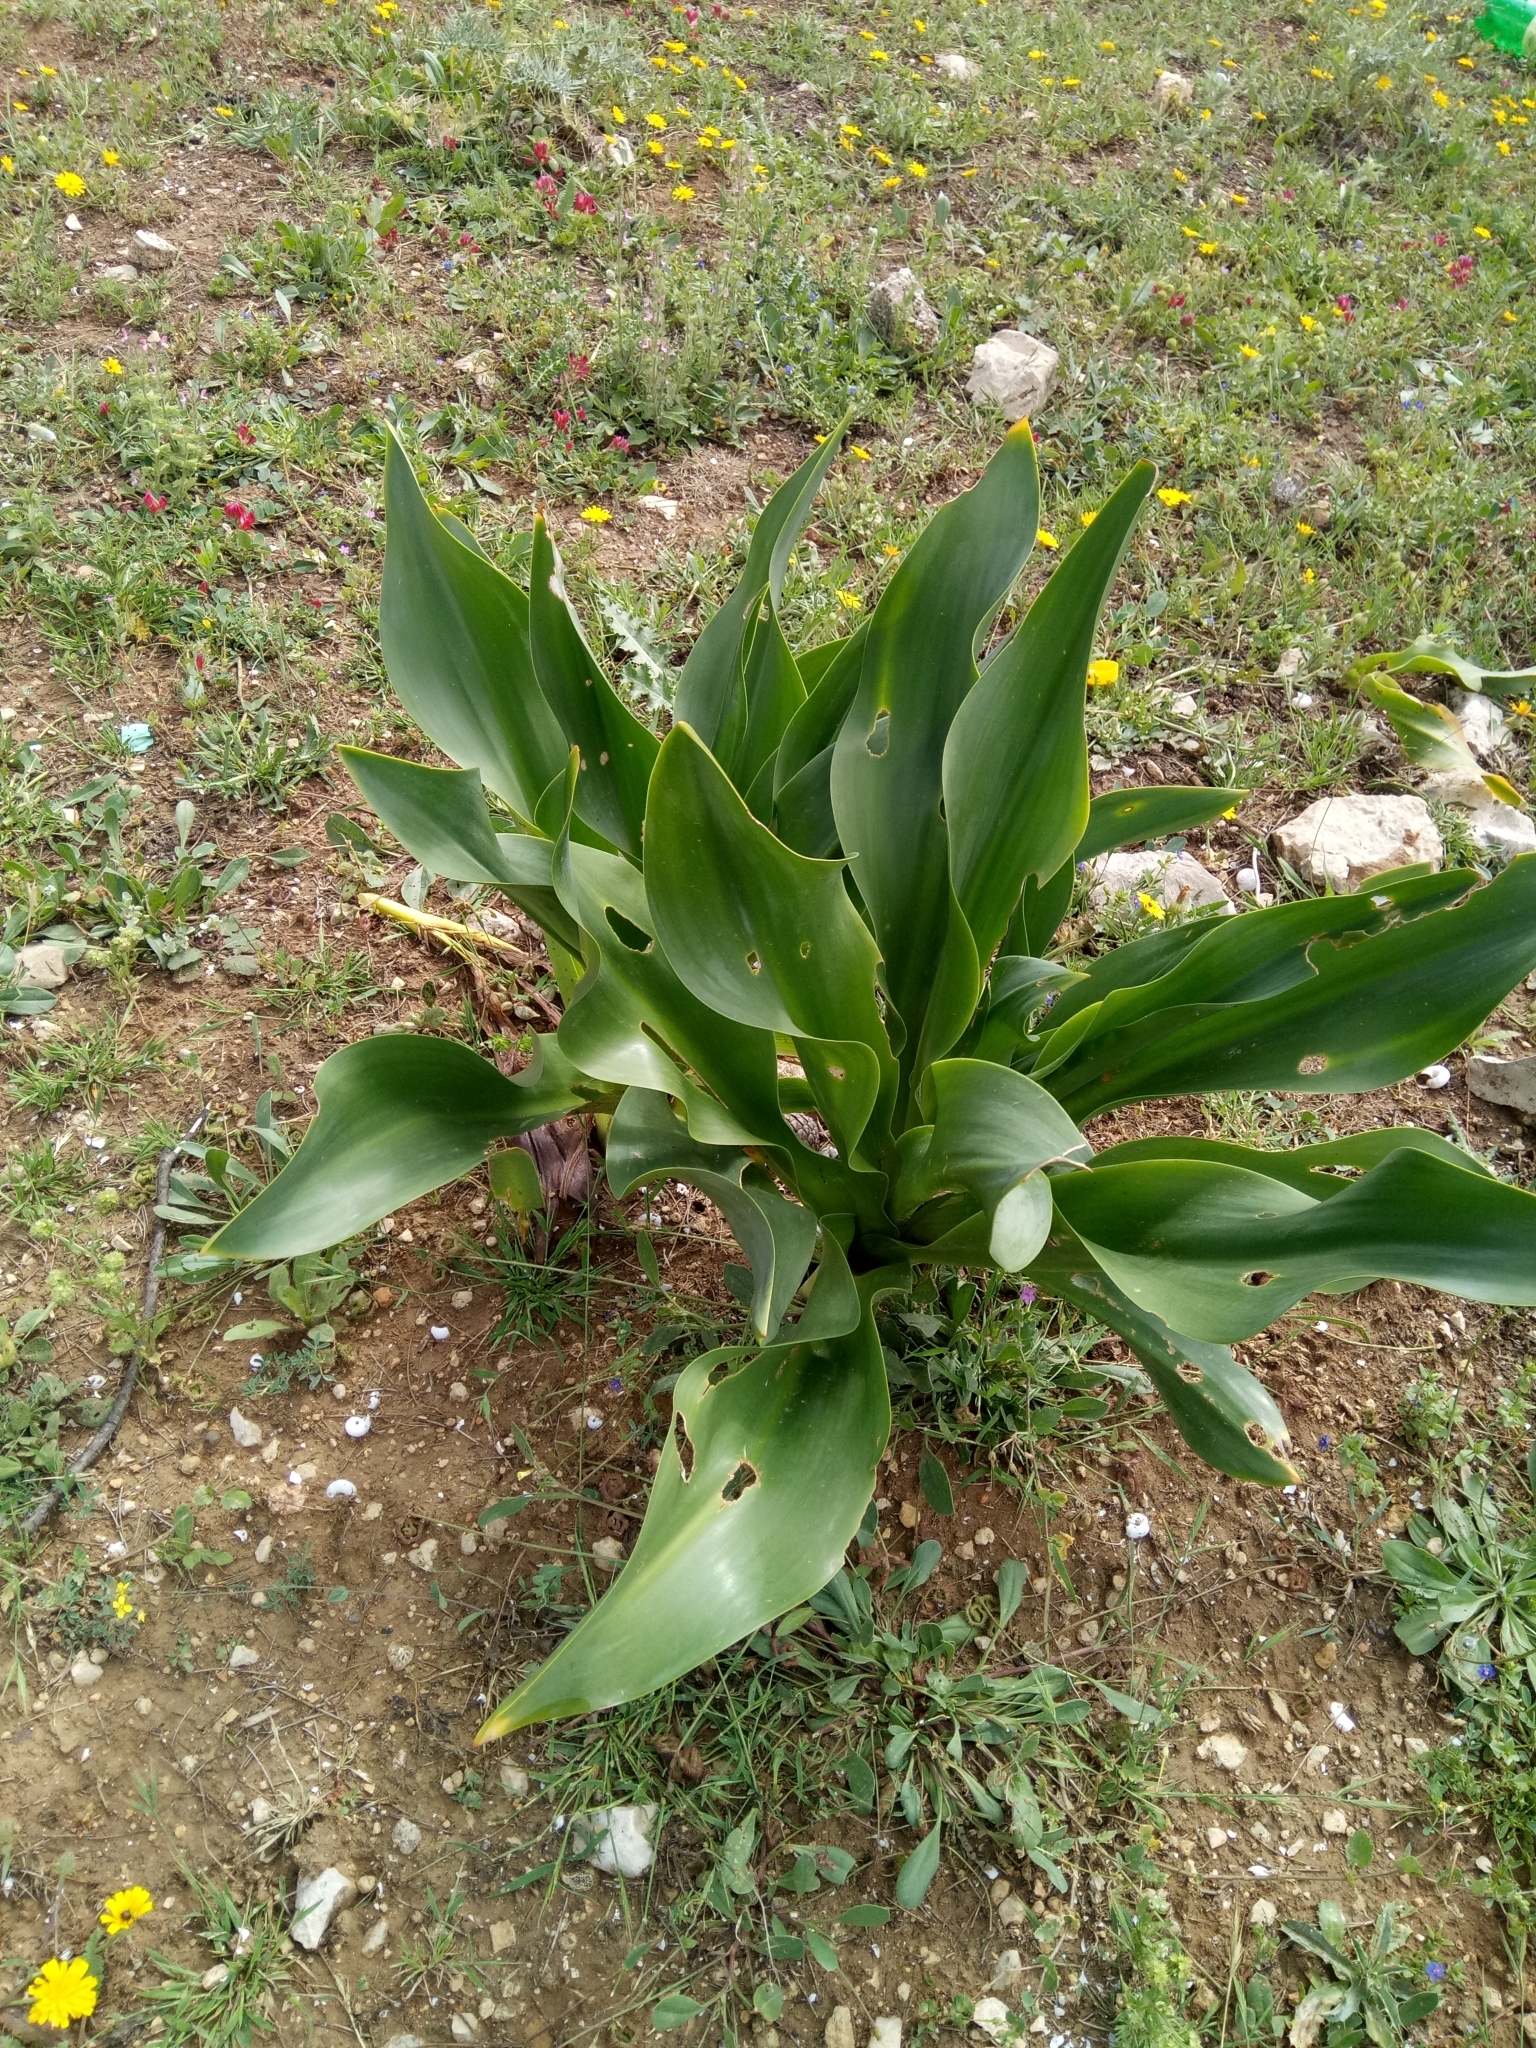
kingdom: Plantae
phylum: Tracheophyta
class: Liliopsida
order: Asparagales
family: Asparagaceae
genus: Drimia
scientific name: Drimia numidica
